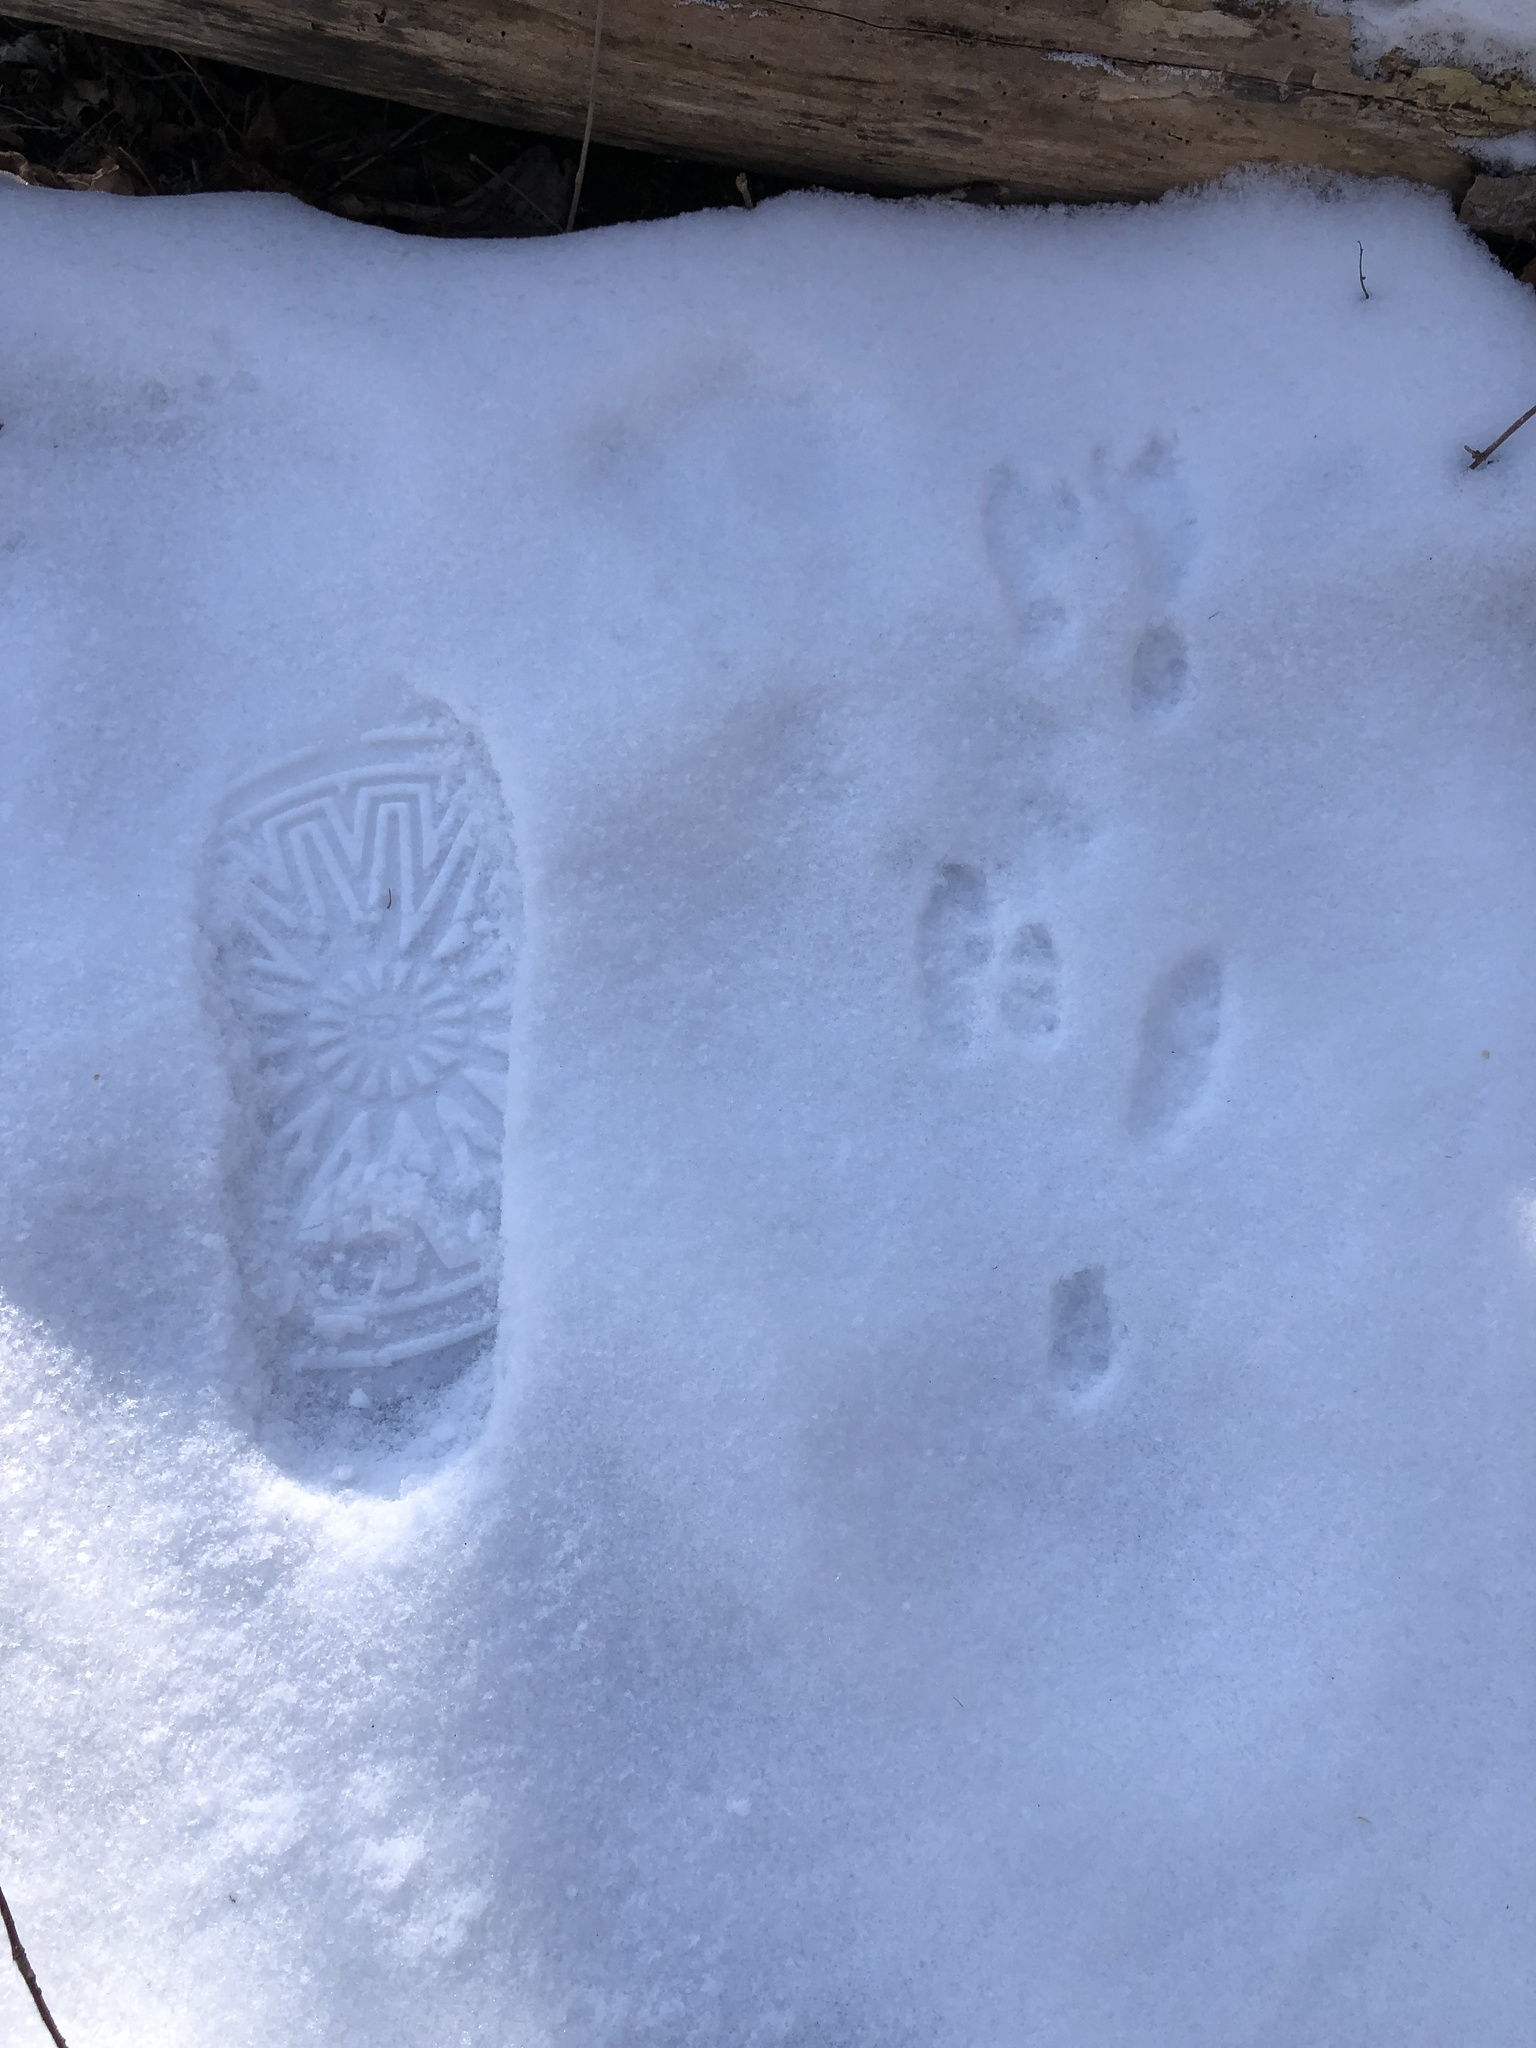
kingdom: Animalia
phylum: Chordata
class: Mammalia
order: Lagomorpha
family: Leporidae
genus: Sylvilagus
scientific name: Sylvilagus floridanus
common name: Eastern cottontail
